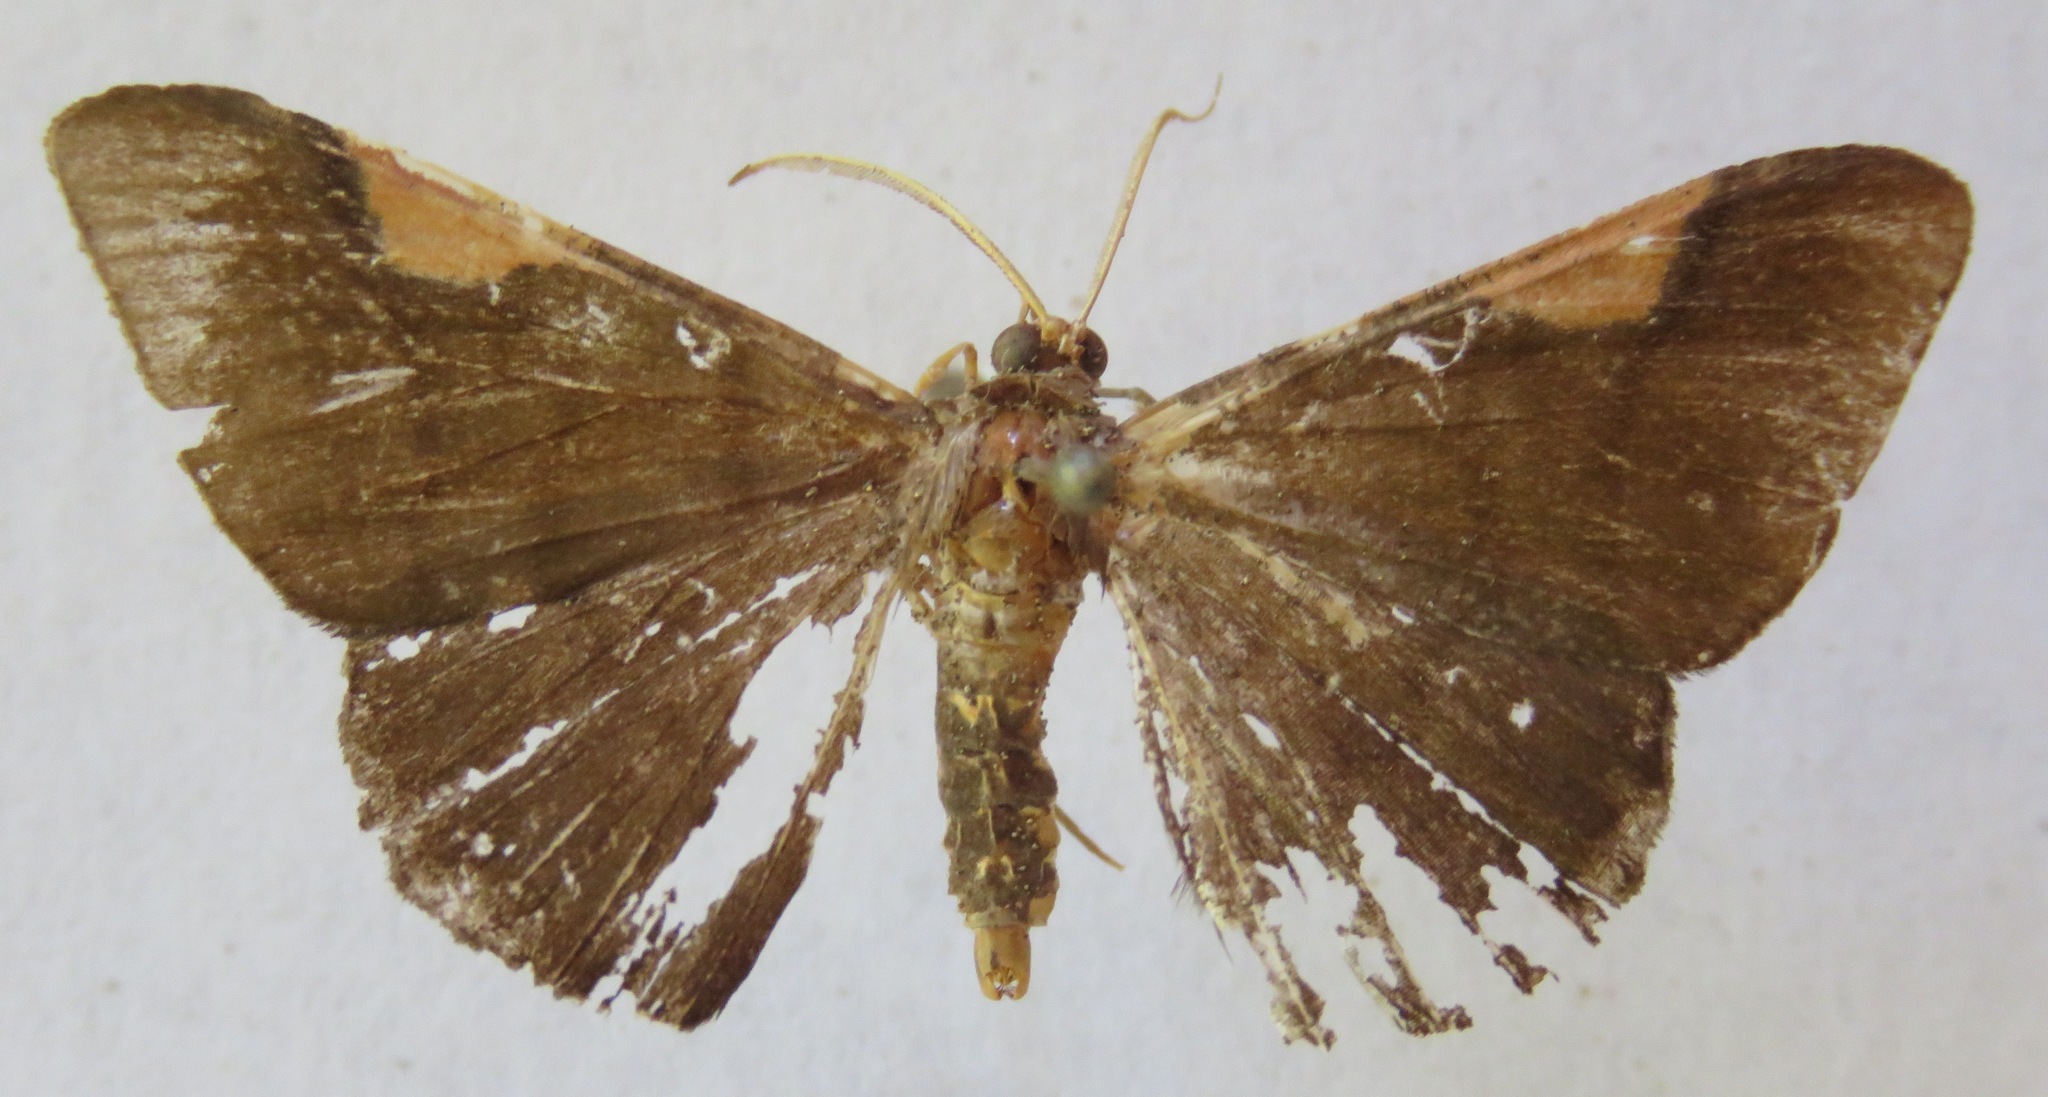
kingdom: Animalia
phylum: Arthropoda
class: Insecta
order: Lepidoptera
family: Geometridae
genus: Sphacelodes
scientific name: Sphacelodes vulneraria
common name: Looper moth
